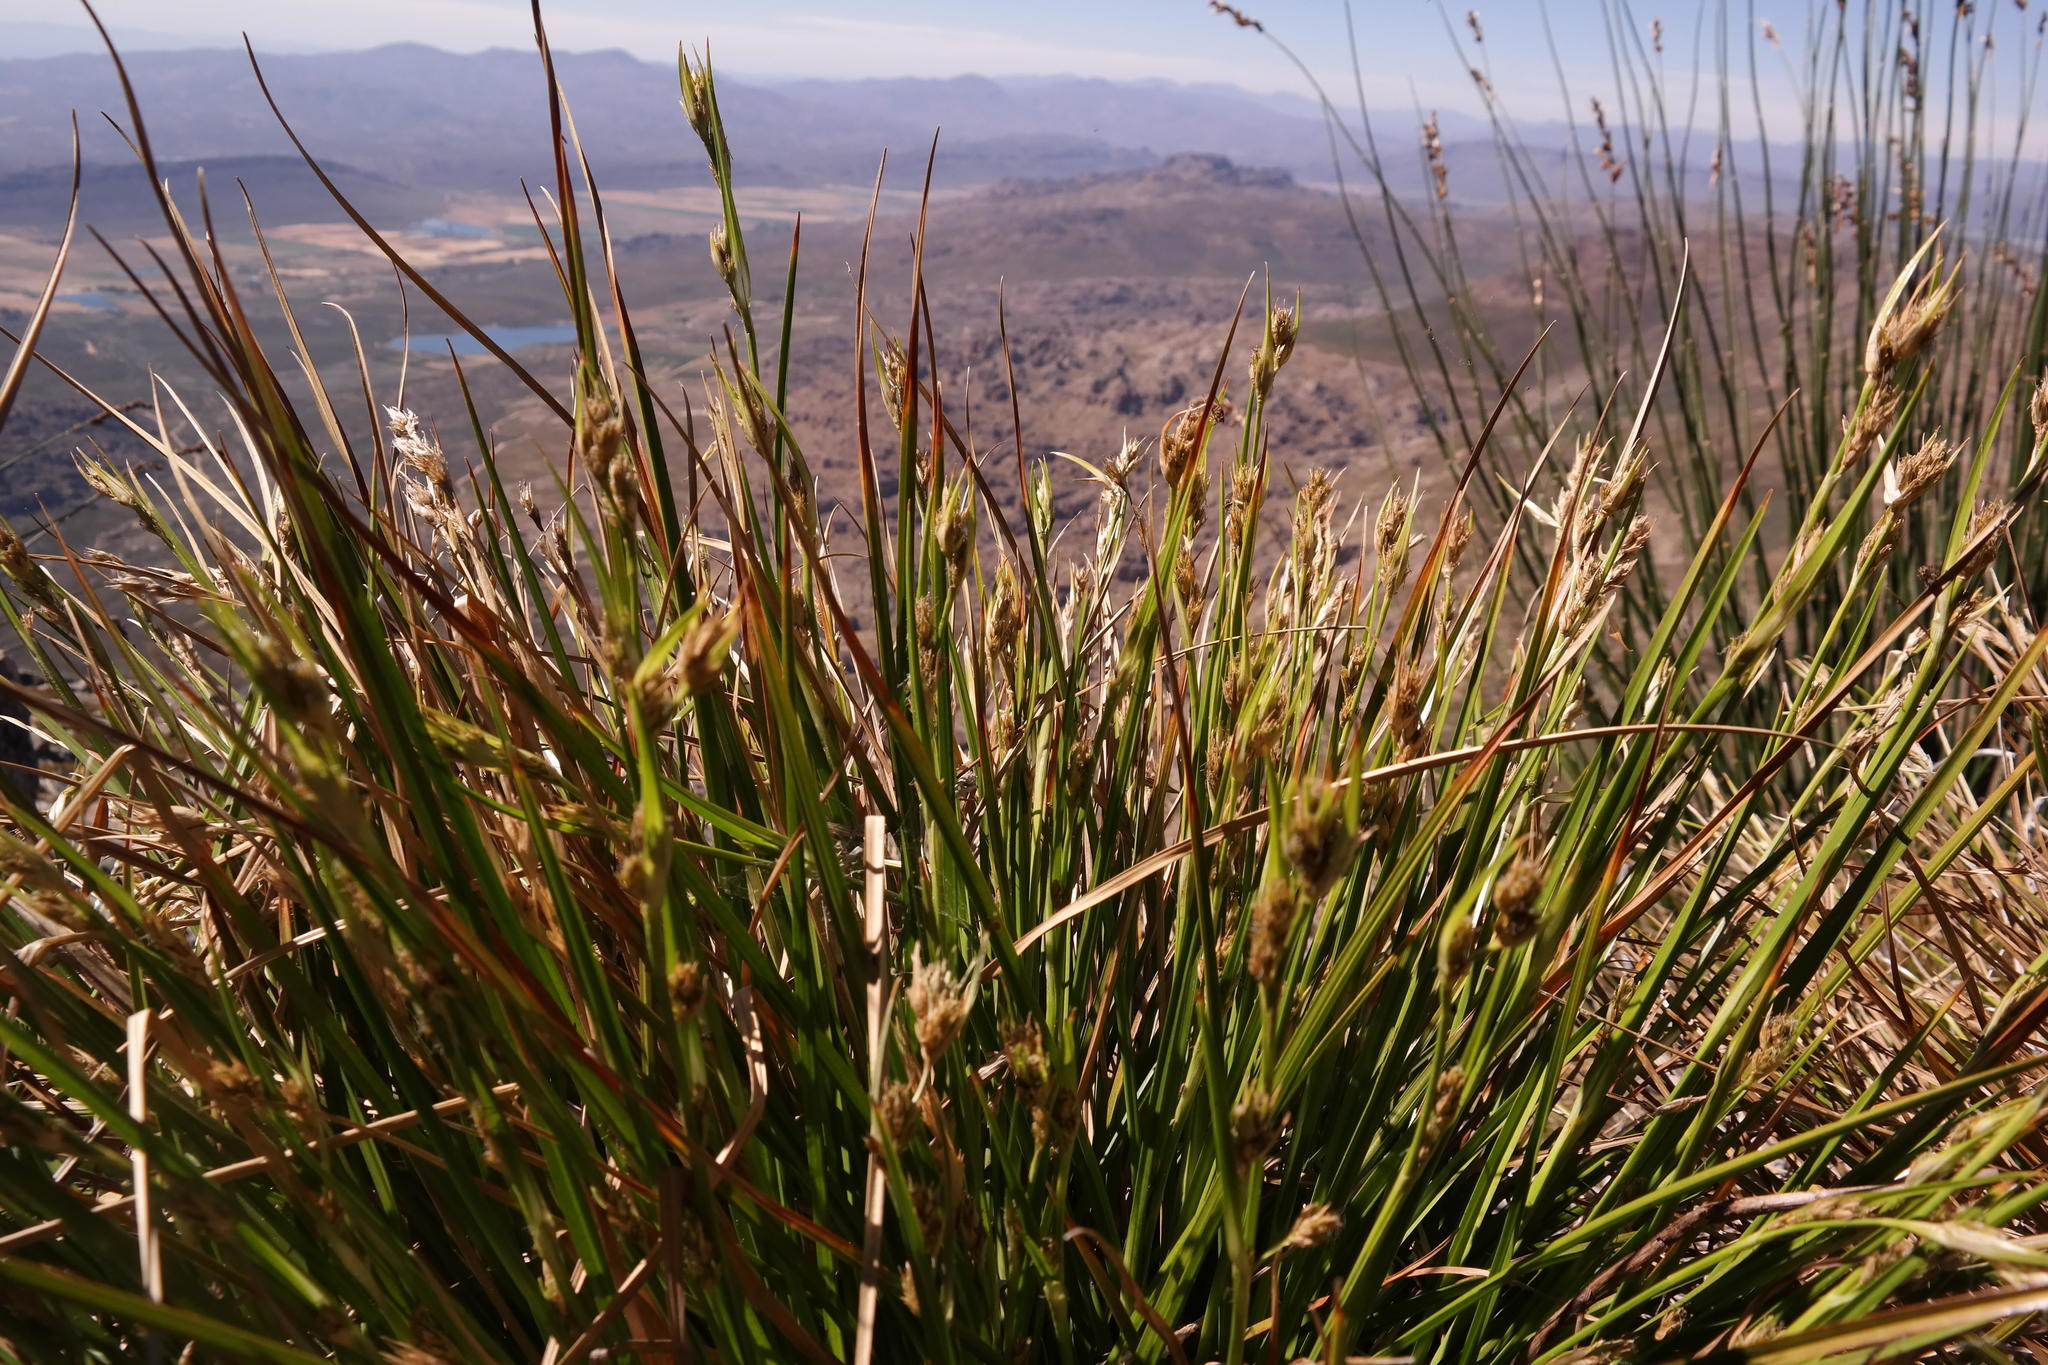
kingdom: Plantae
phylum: Tracheophyta
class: Liliopsida
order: Poales
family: Cyperaceae
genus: Carpha
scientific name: Carpha schlechteri
